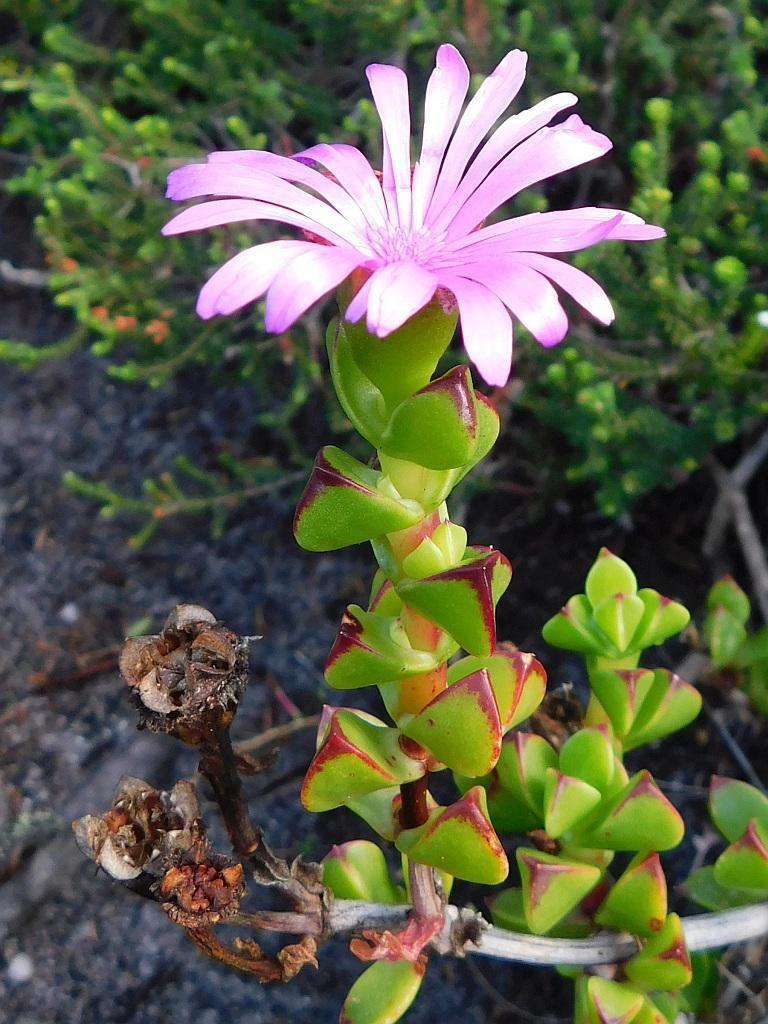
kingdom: Plantae
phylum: Tracheophyta
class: Magnoliopsida
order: Caryophyllales
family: Aizoaceae
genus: Erepsia
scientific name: Erepsia inclaudens
